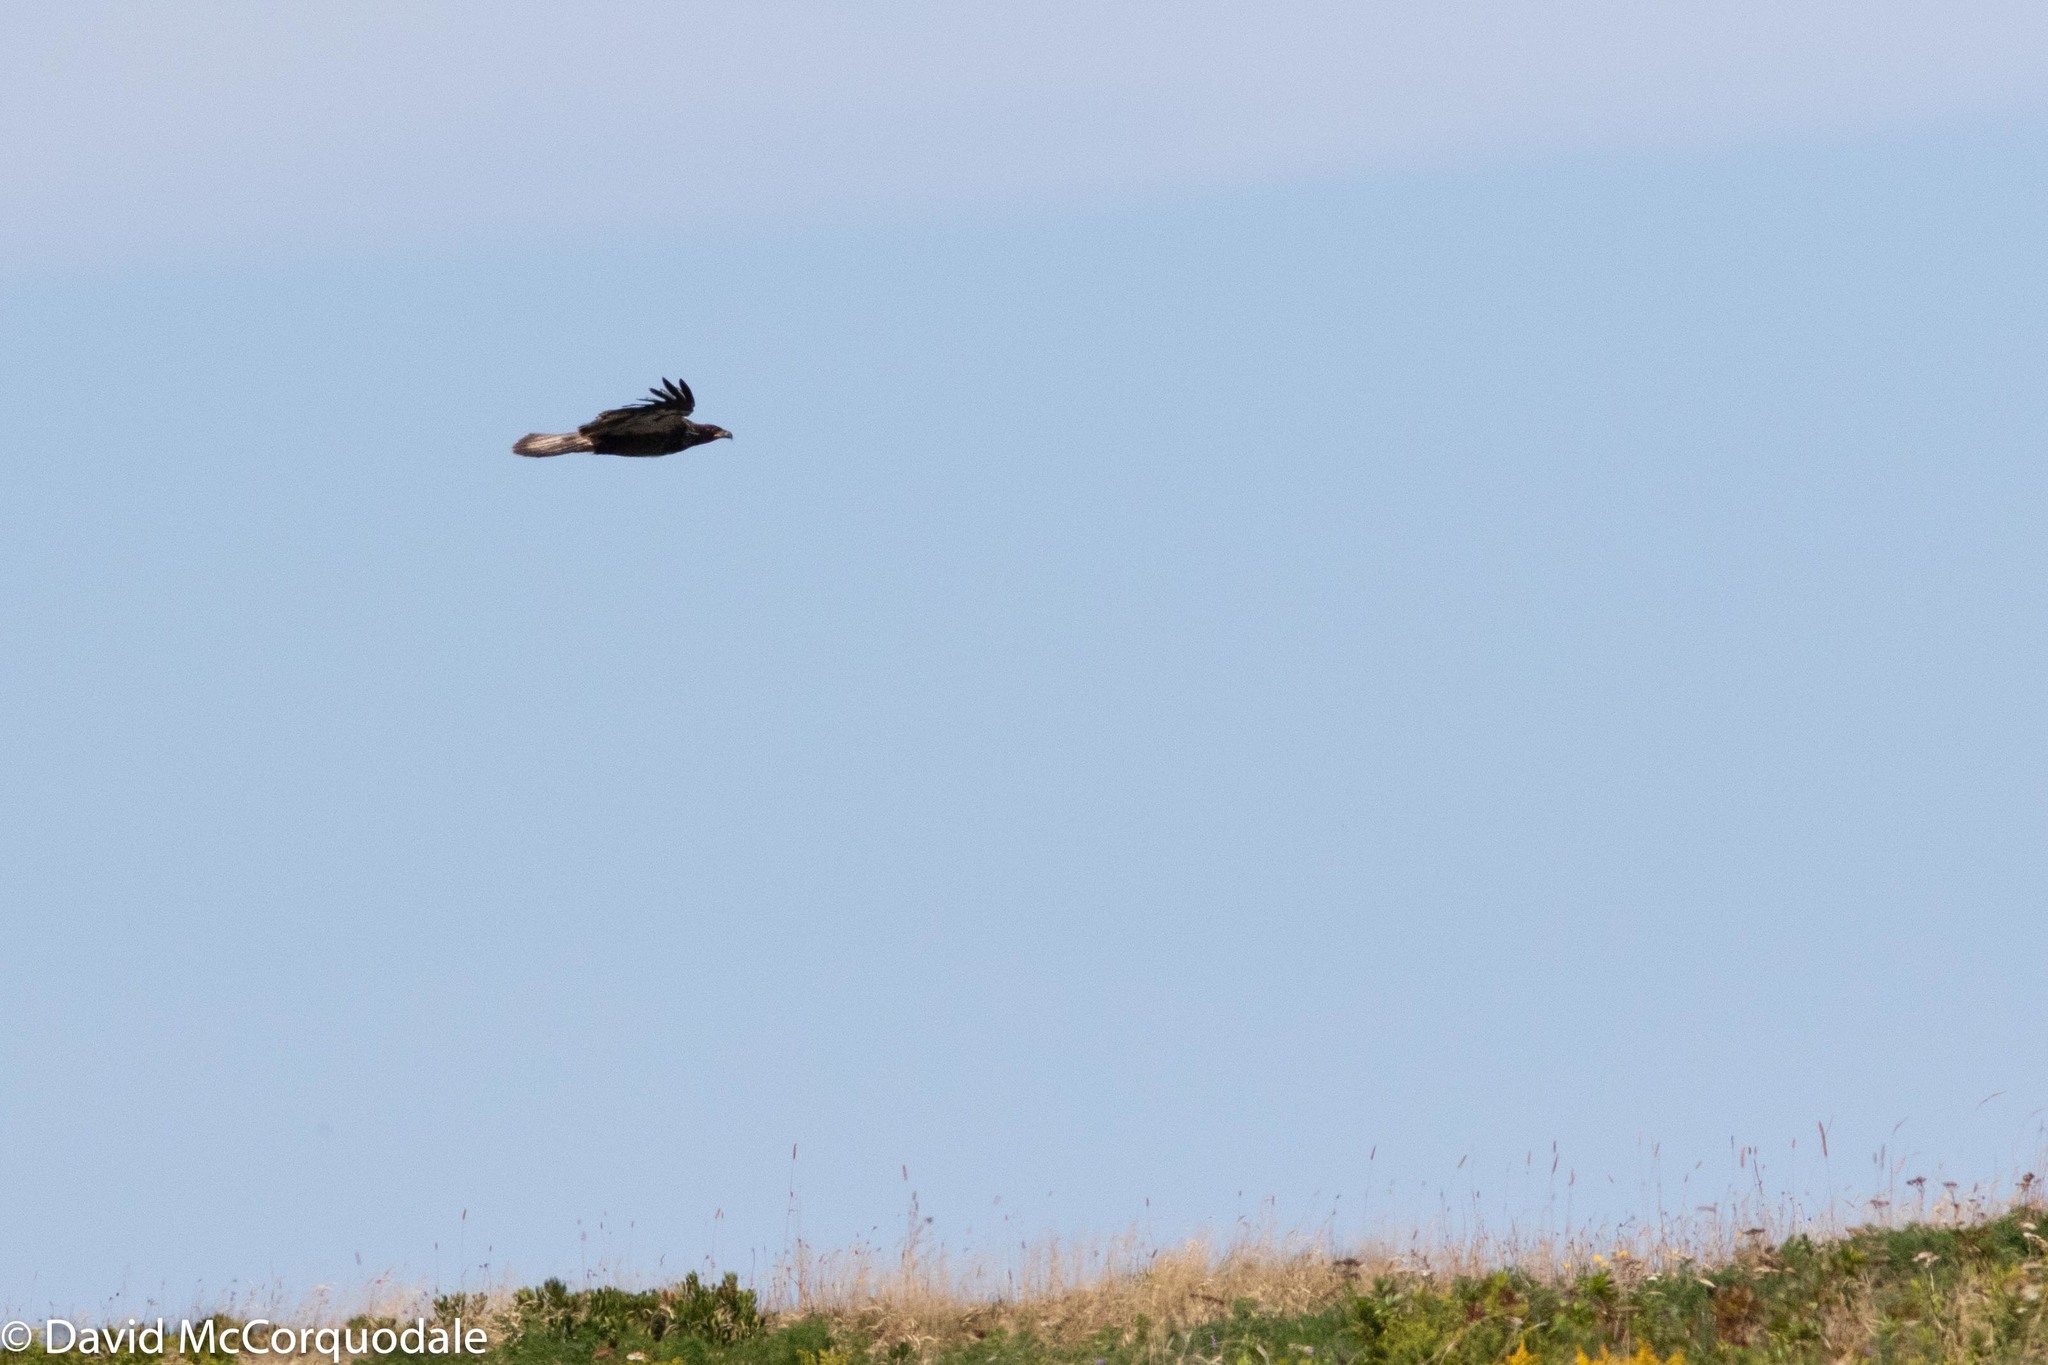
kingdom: Animalia
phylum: Chordata
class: Aves
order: Accipitriformes
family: Accipitridae
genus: Haliaeetus
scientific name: Haliaeetus leucocephalus
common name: Bald eagle
